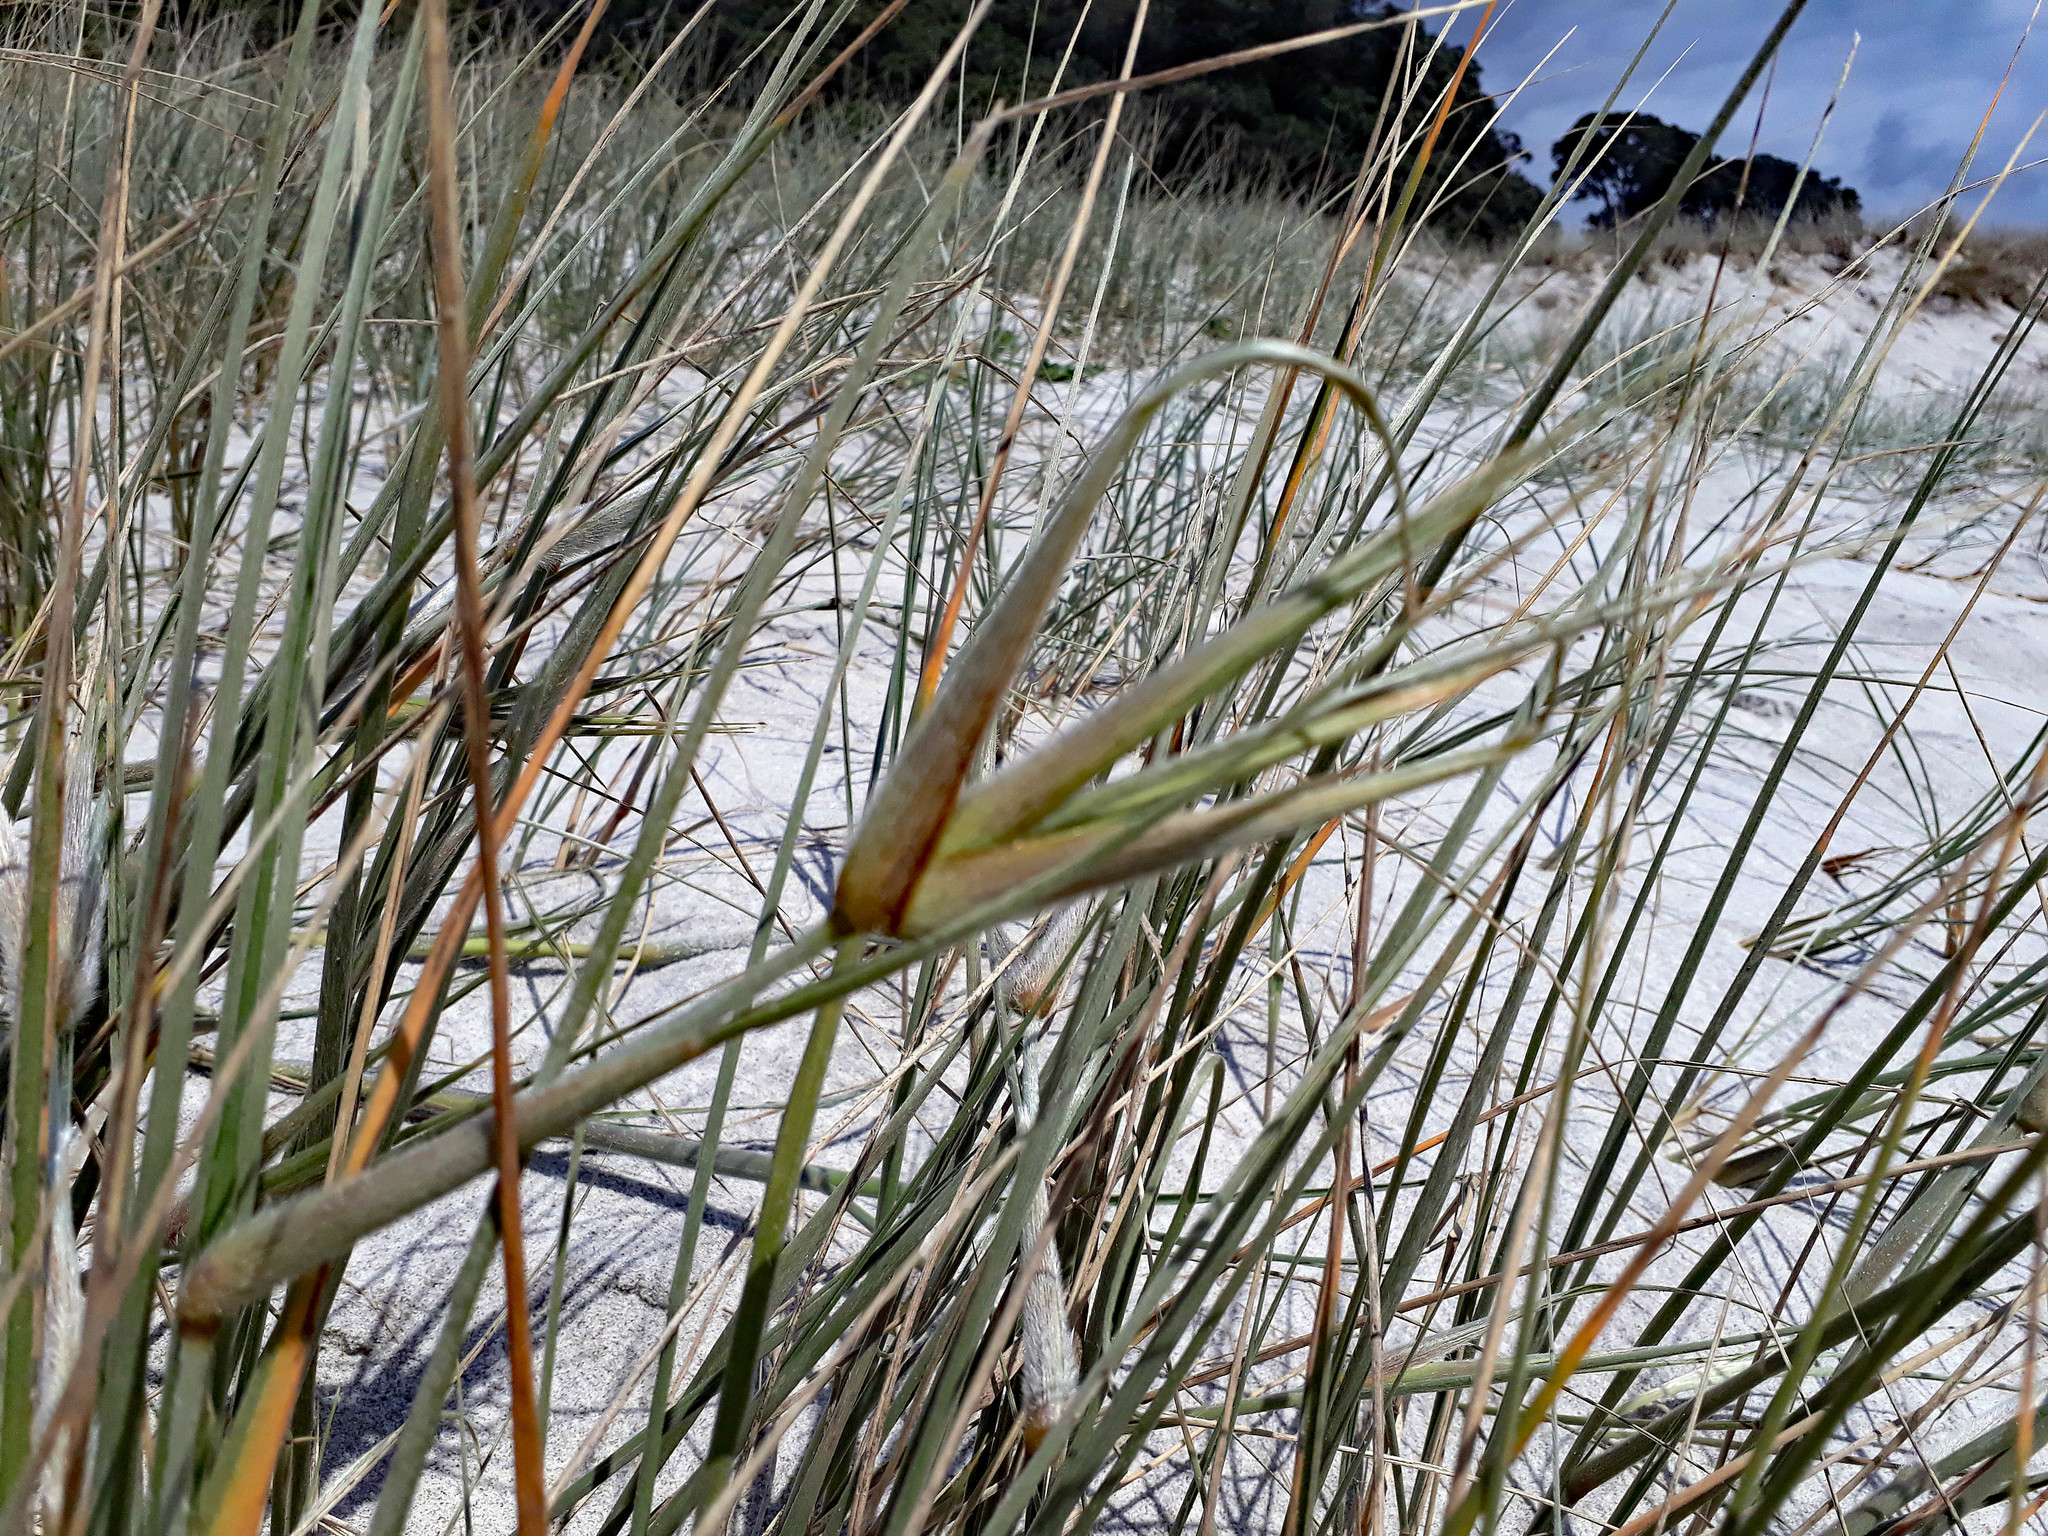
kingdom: Plantae
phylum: Tracheophyta
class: Liliopsida
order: Poales
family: Poaceae
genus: Spinifex
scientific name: Spinifex sericeus
